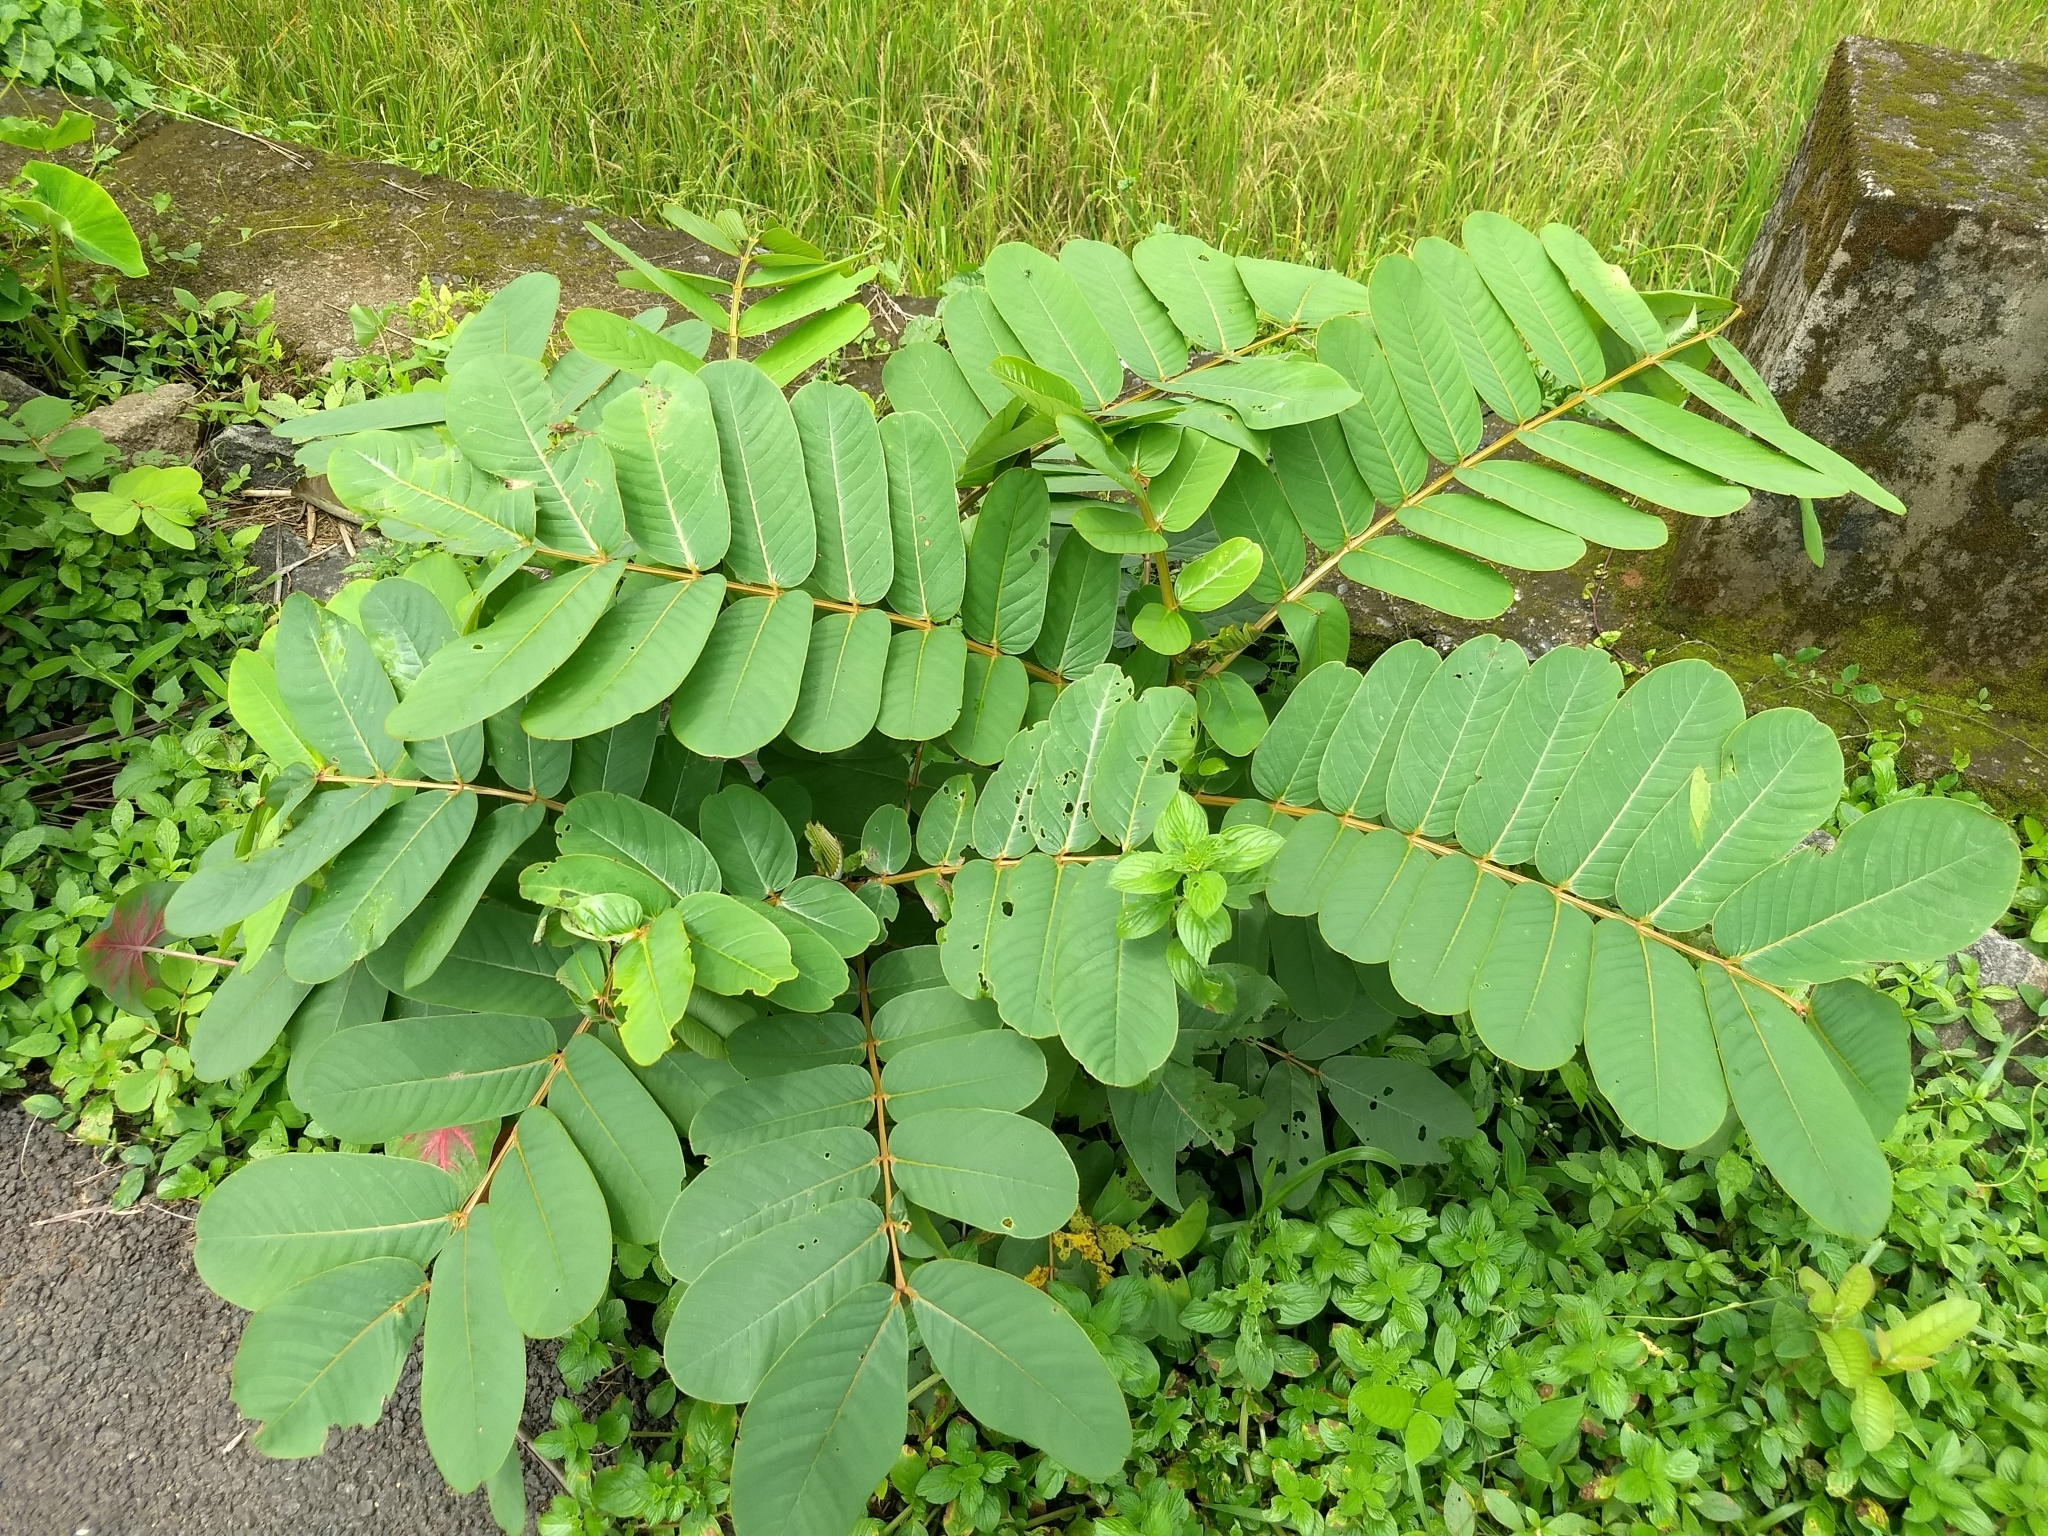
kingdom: Plantae
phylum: Tracheophyta
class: Magnoliopsida
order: Fabales
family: Fabaceae
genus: Senna
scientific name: Senna alata
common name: Emperor's candlesticks
